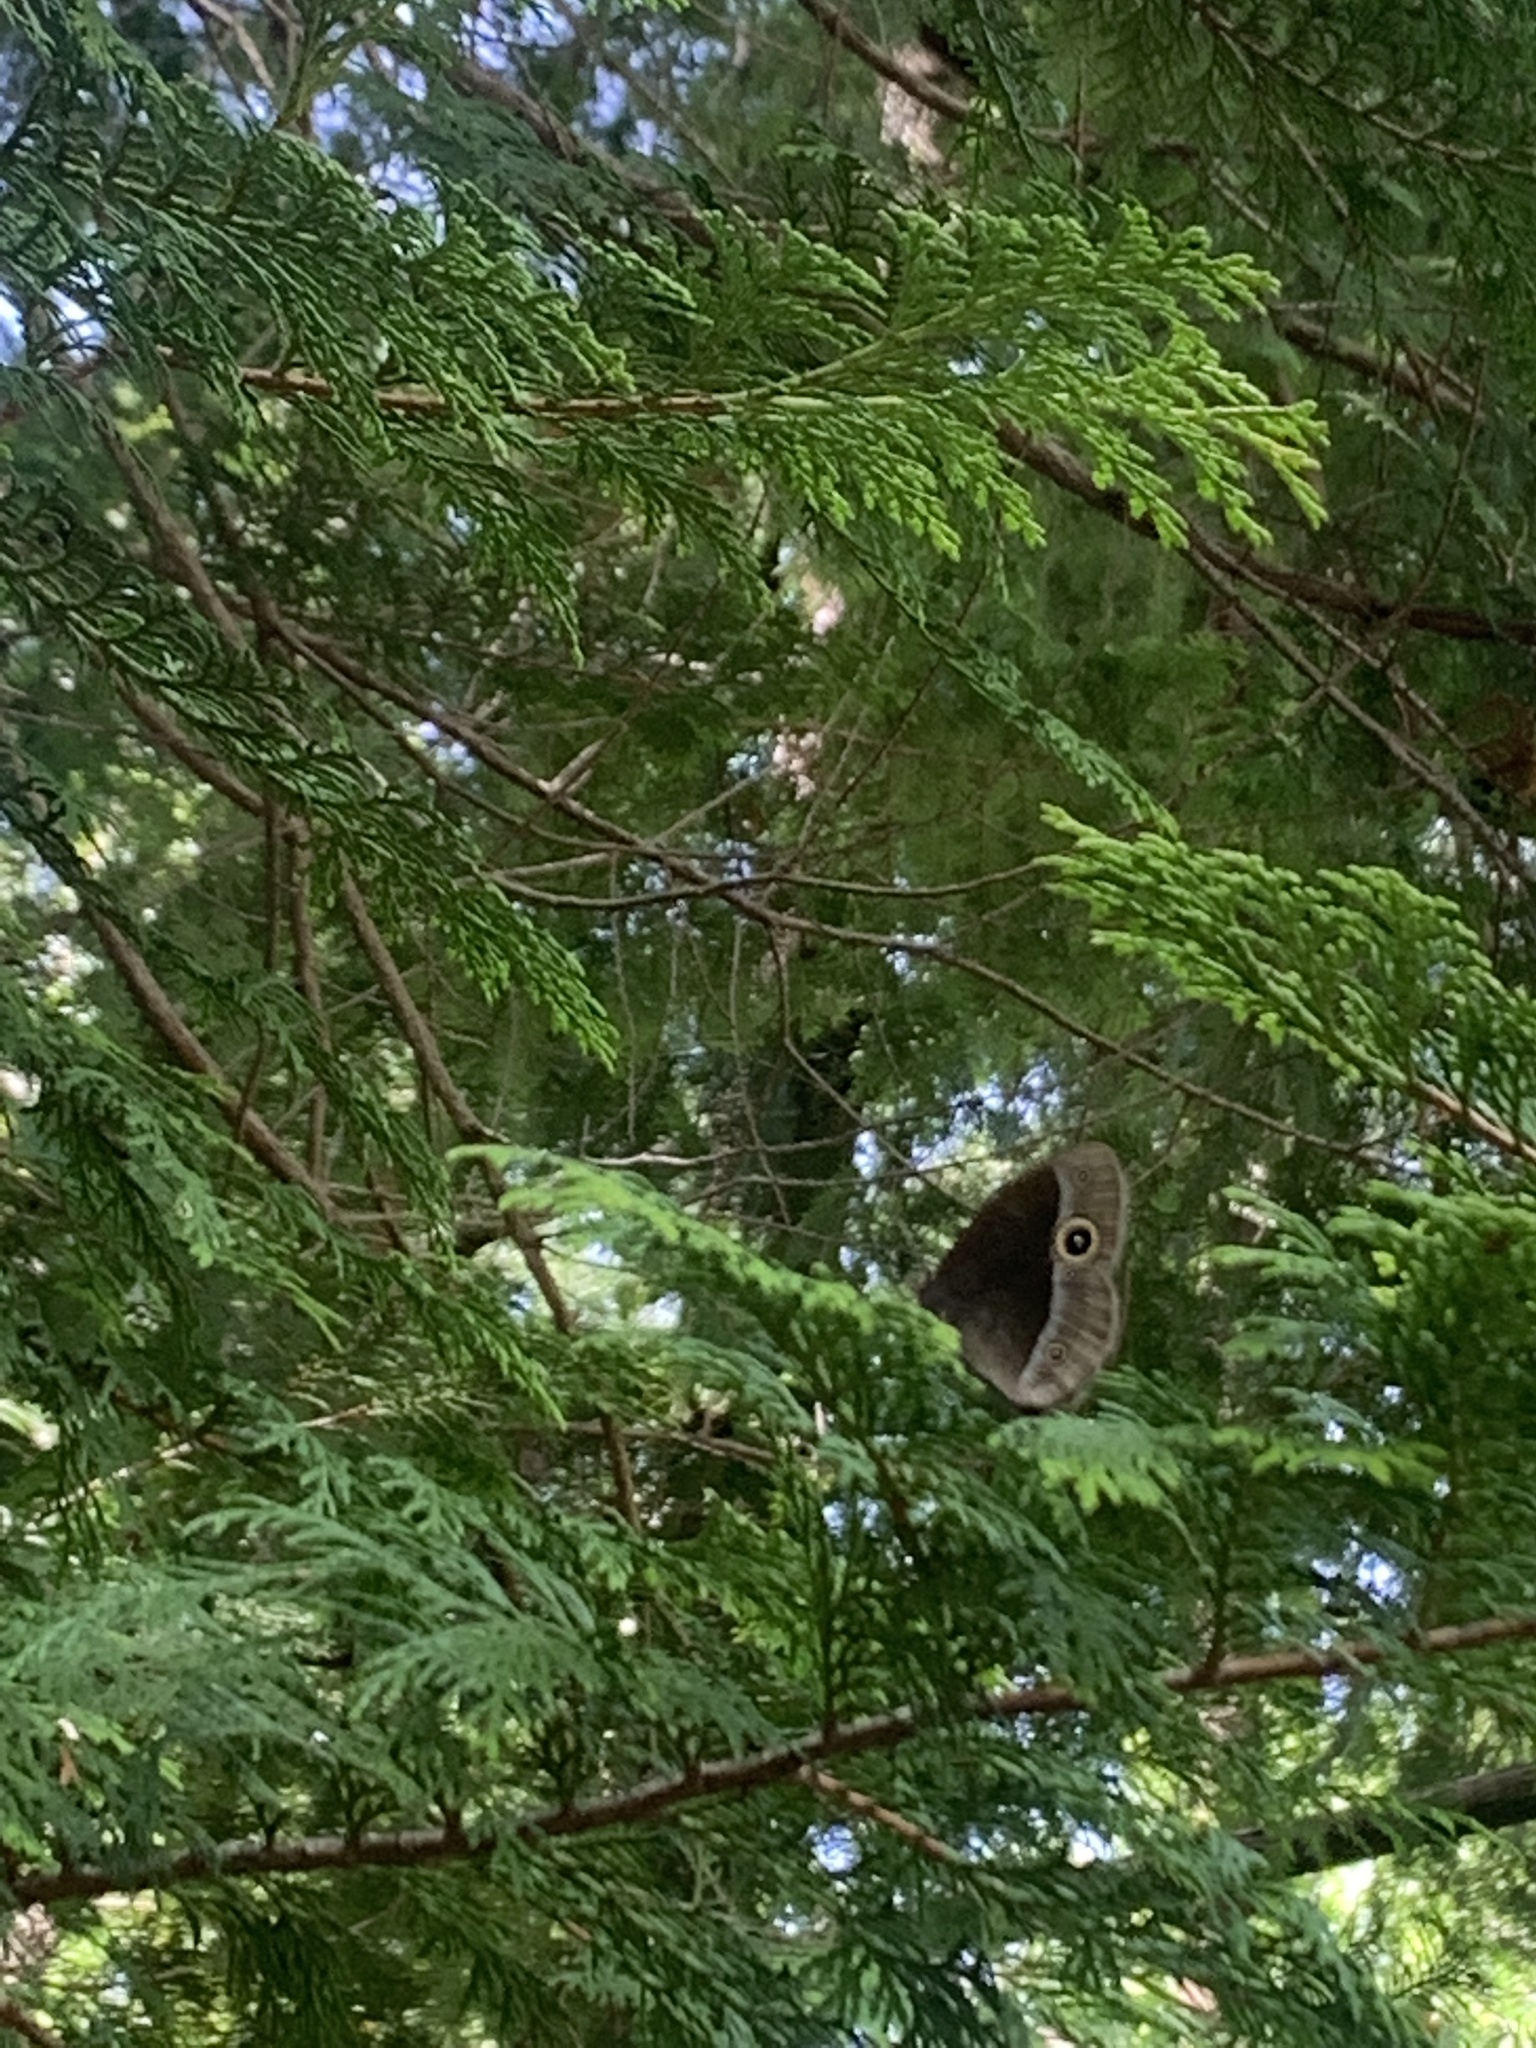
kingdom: Animalia
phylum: Arthropoda
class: Insecta
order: Lepidoptera
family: Nymphalidae
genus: Mycalesis
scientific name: Mycalesis francisca
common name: Lilacine bushbrown
